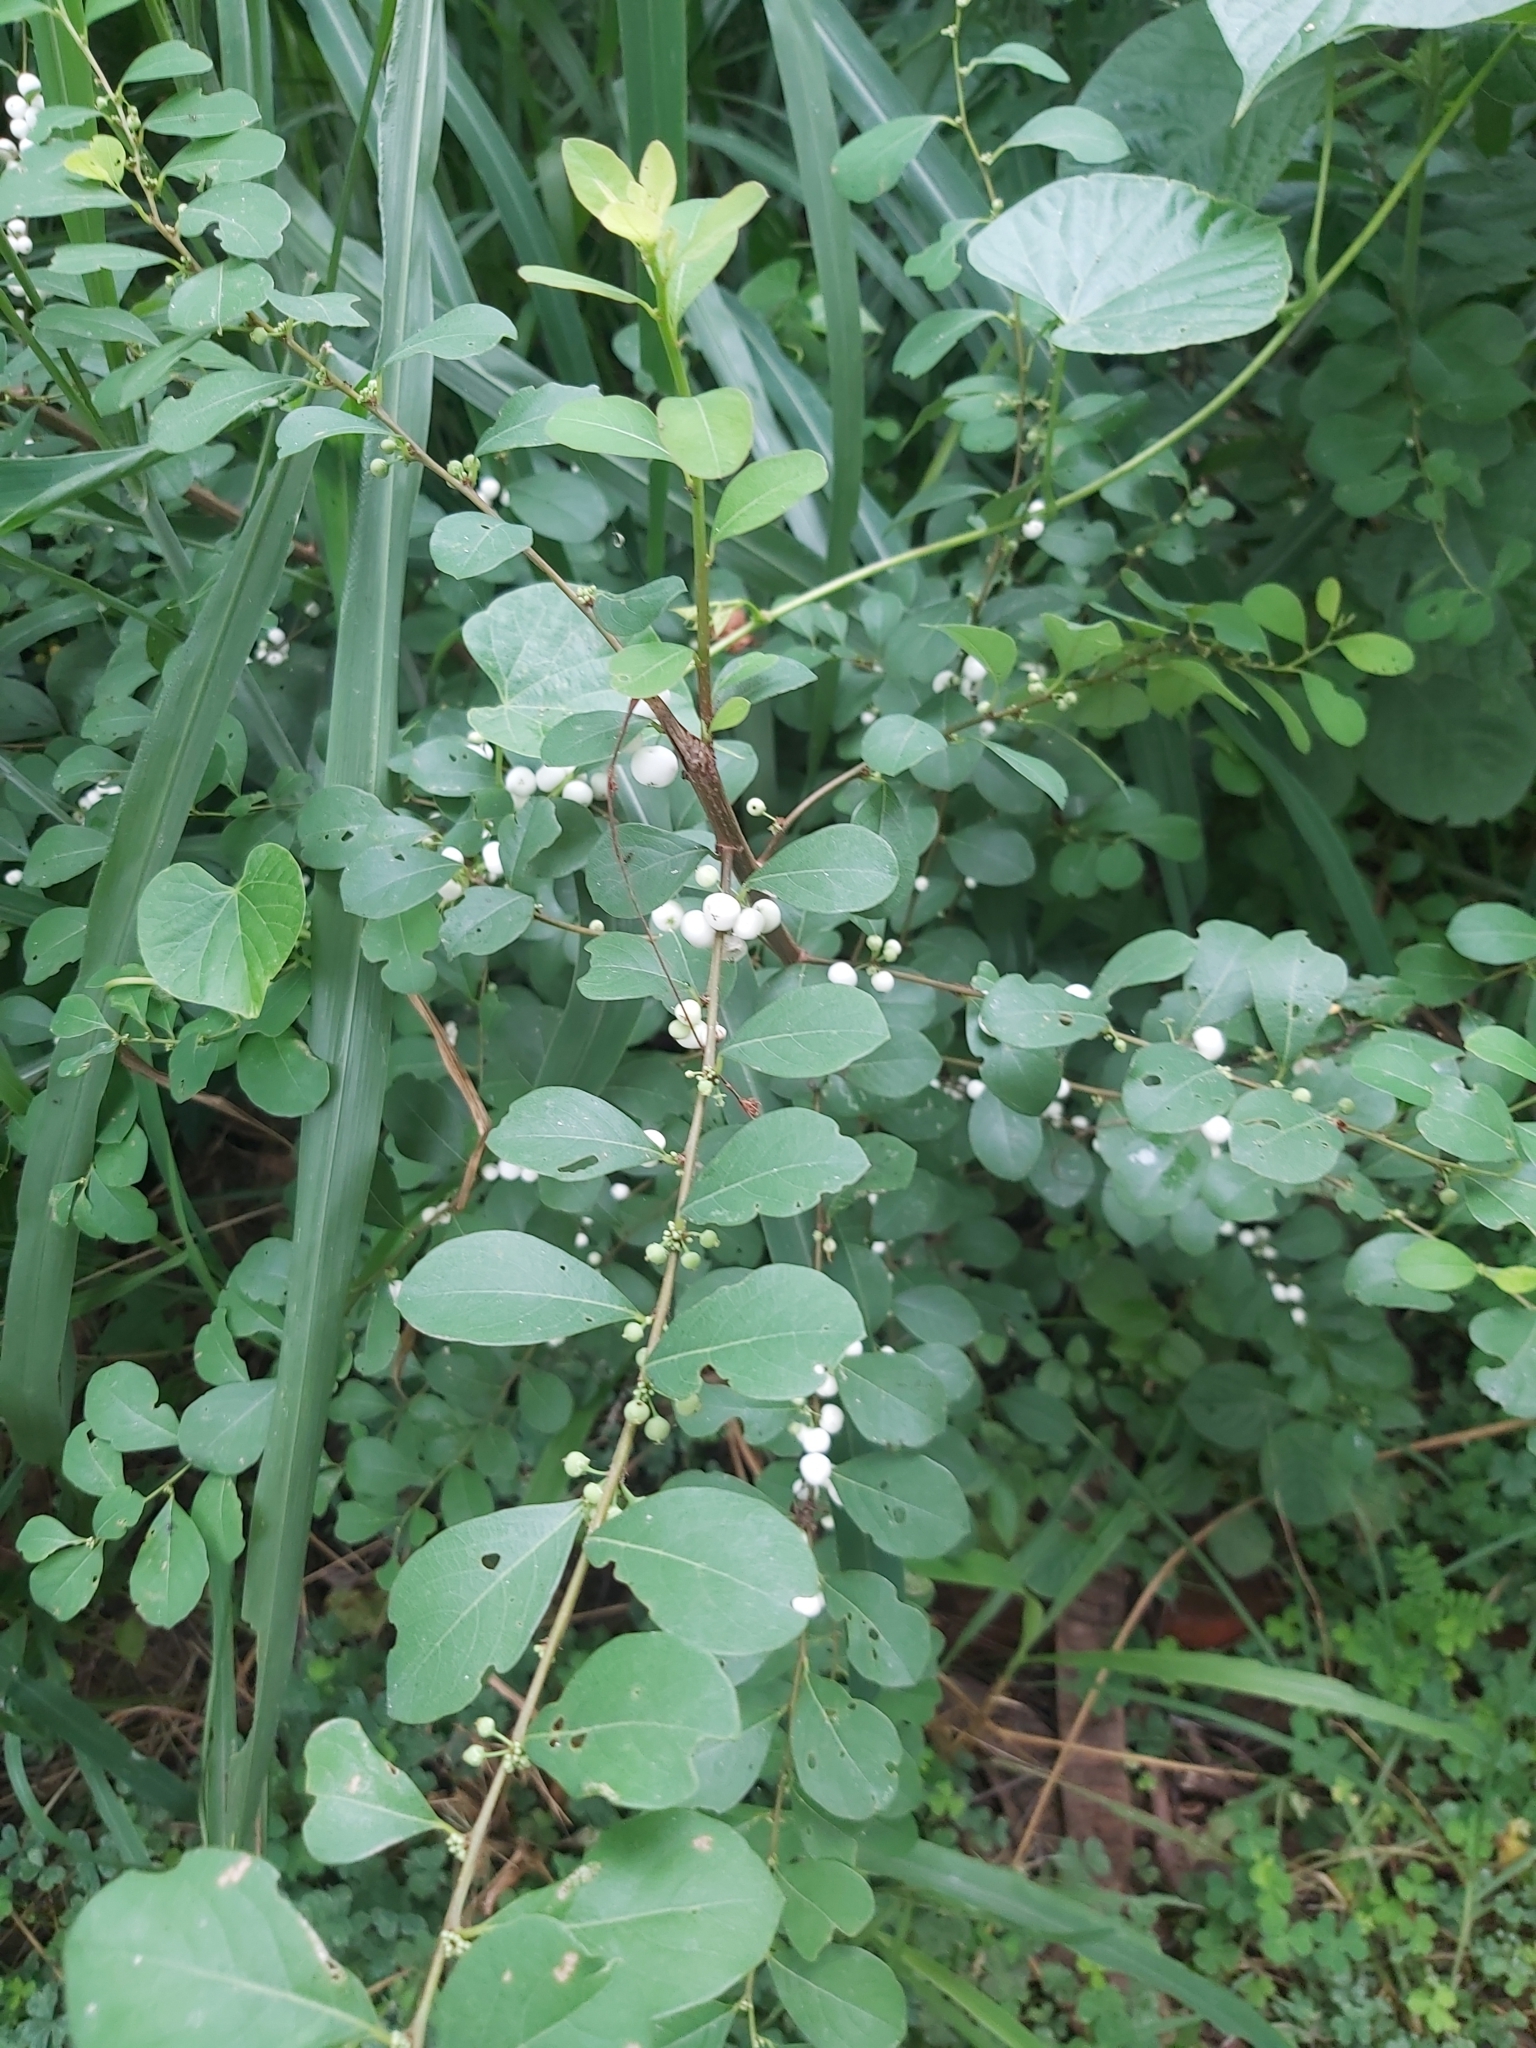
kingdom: Plantae
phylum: Tracheophyta
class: Magnoliopsida
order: Malpighiales
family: Phyllanthaceae
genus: Flueggea
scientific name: Flueggea virosa
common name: Common bushweed
